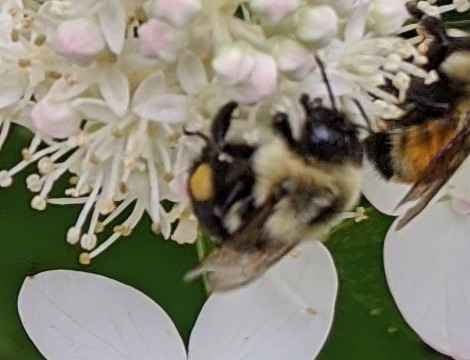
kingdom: Animalia
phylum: Arthropoda
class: Insecta
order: Hymenoptera
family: Apidae
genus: Bombus
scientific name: Bombus impatiens
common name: Common eastern bumble bee
